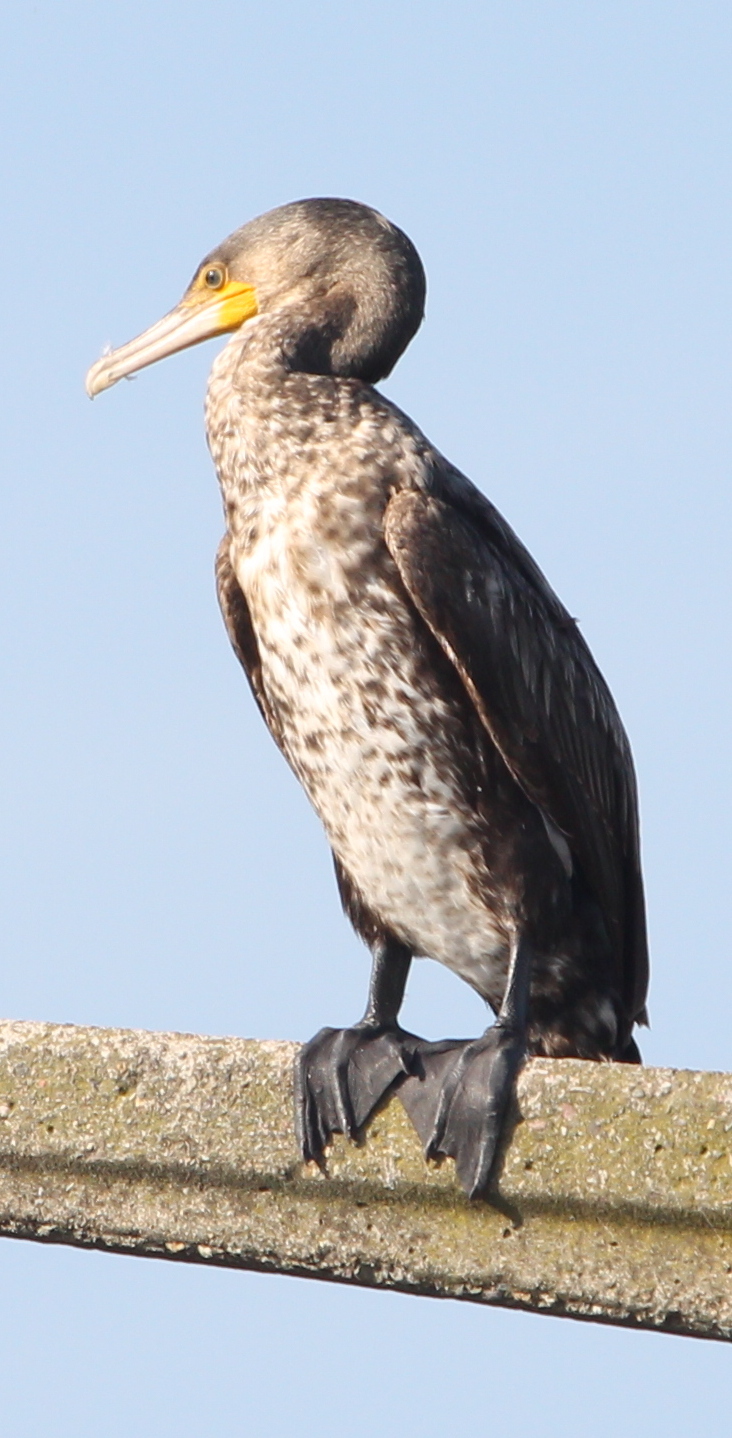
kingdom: Animalia
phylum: Chordata
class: Aves
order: Suliformes
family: Phalacrocoracidae
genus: Phalacrocorax
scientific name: Phalacrocorax carbo
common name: Great cormorant
